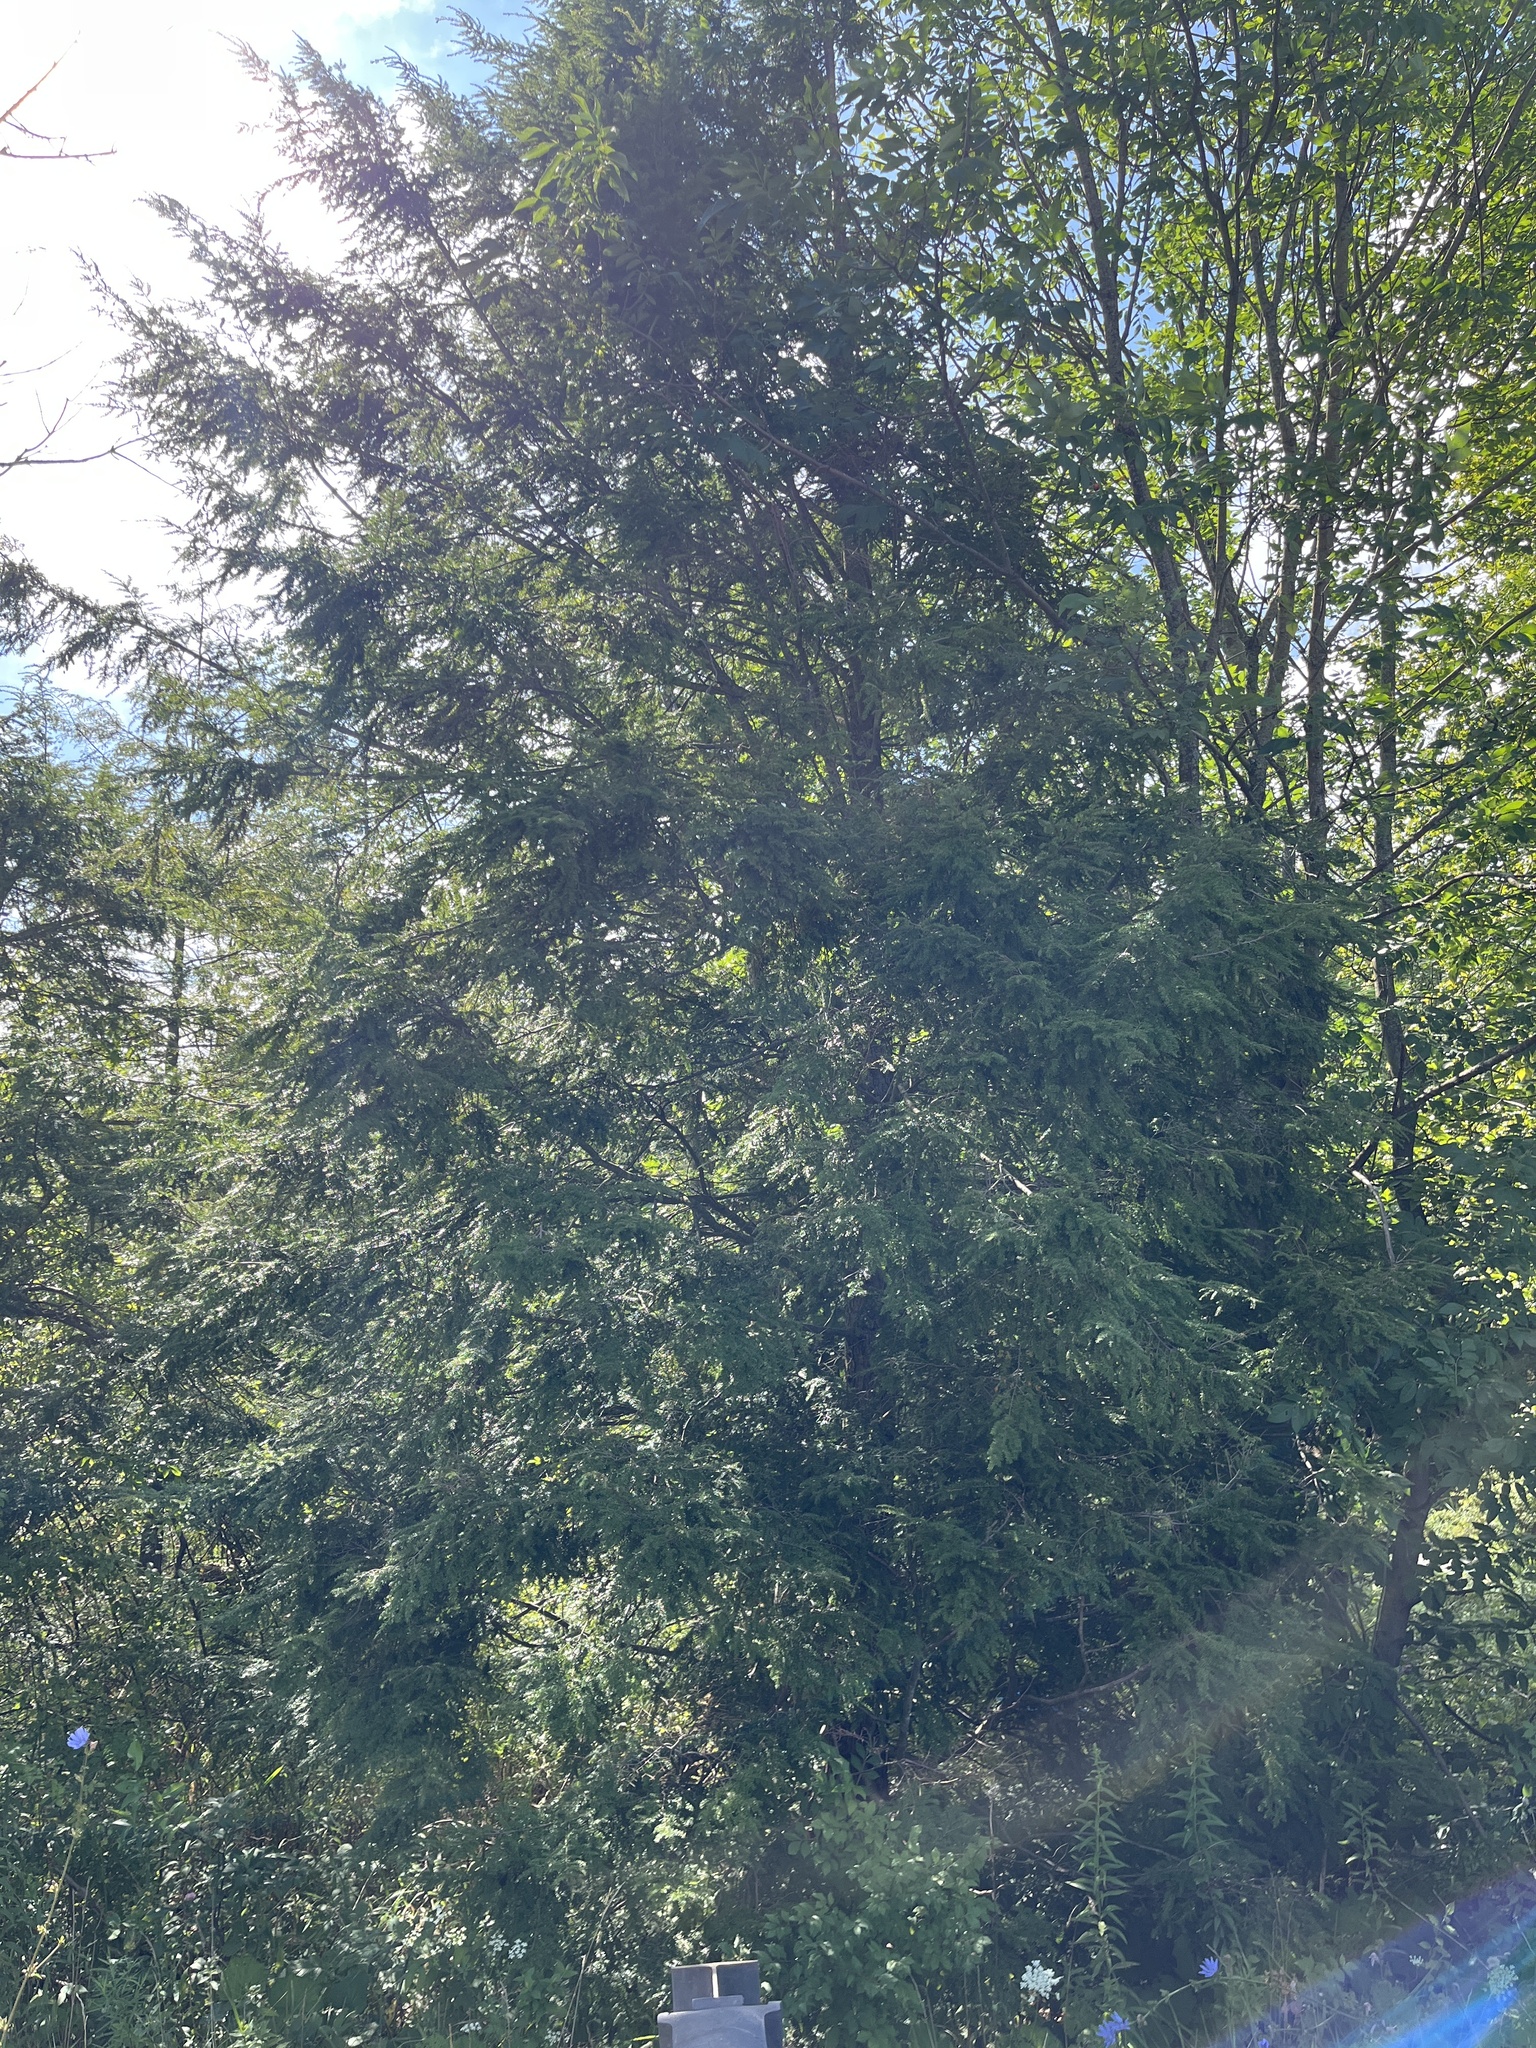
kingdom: Plantae
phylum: Tracheophyta
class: Pinopsida
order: Pinales
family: Pinaceae
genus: Tsuga
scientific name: Tsuga canadensis
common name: Eastern hemlock
